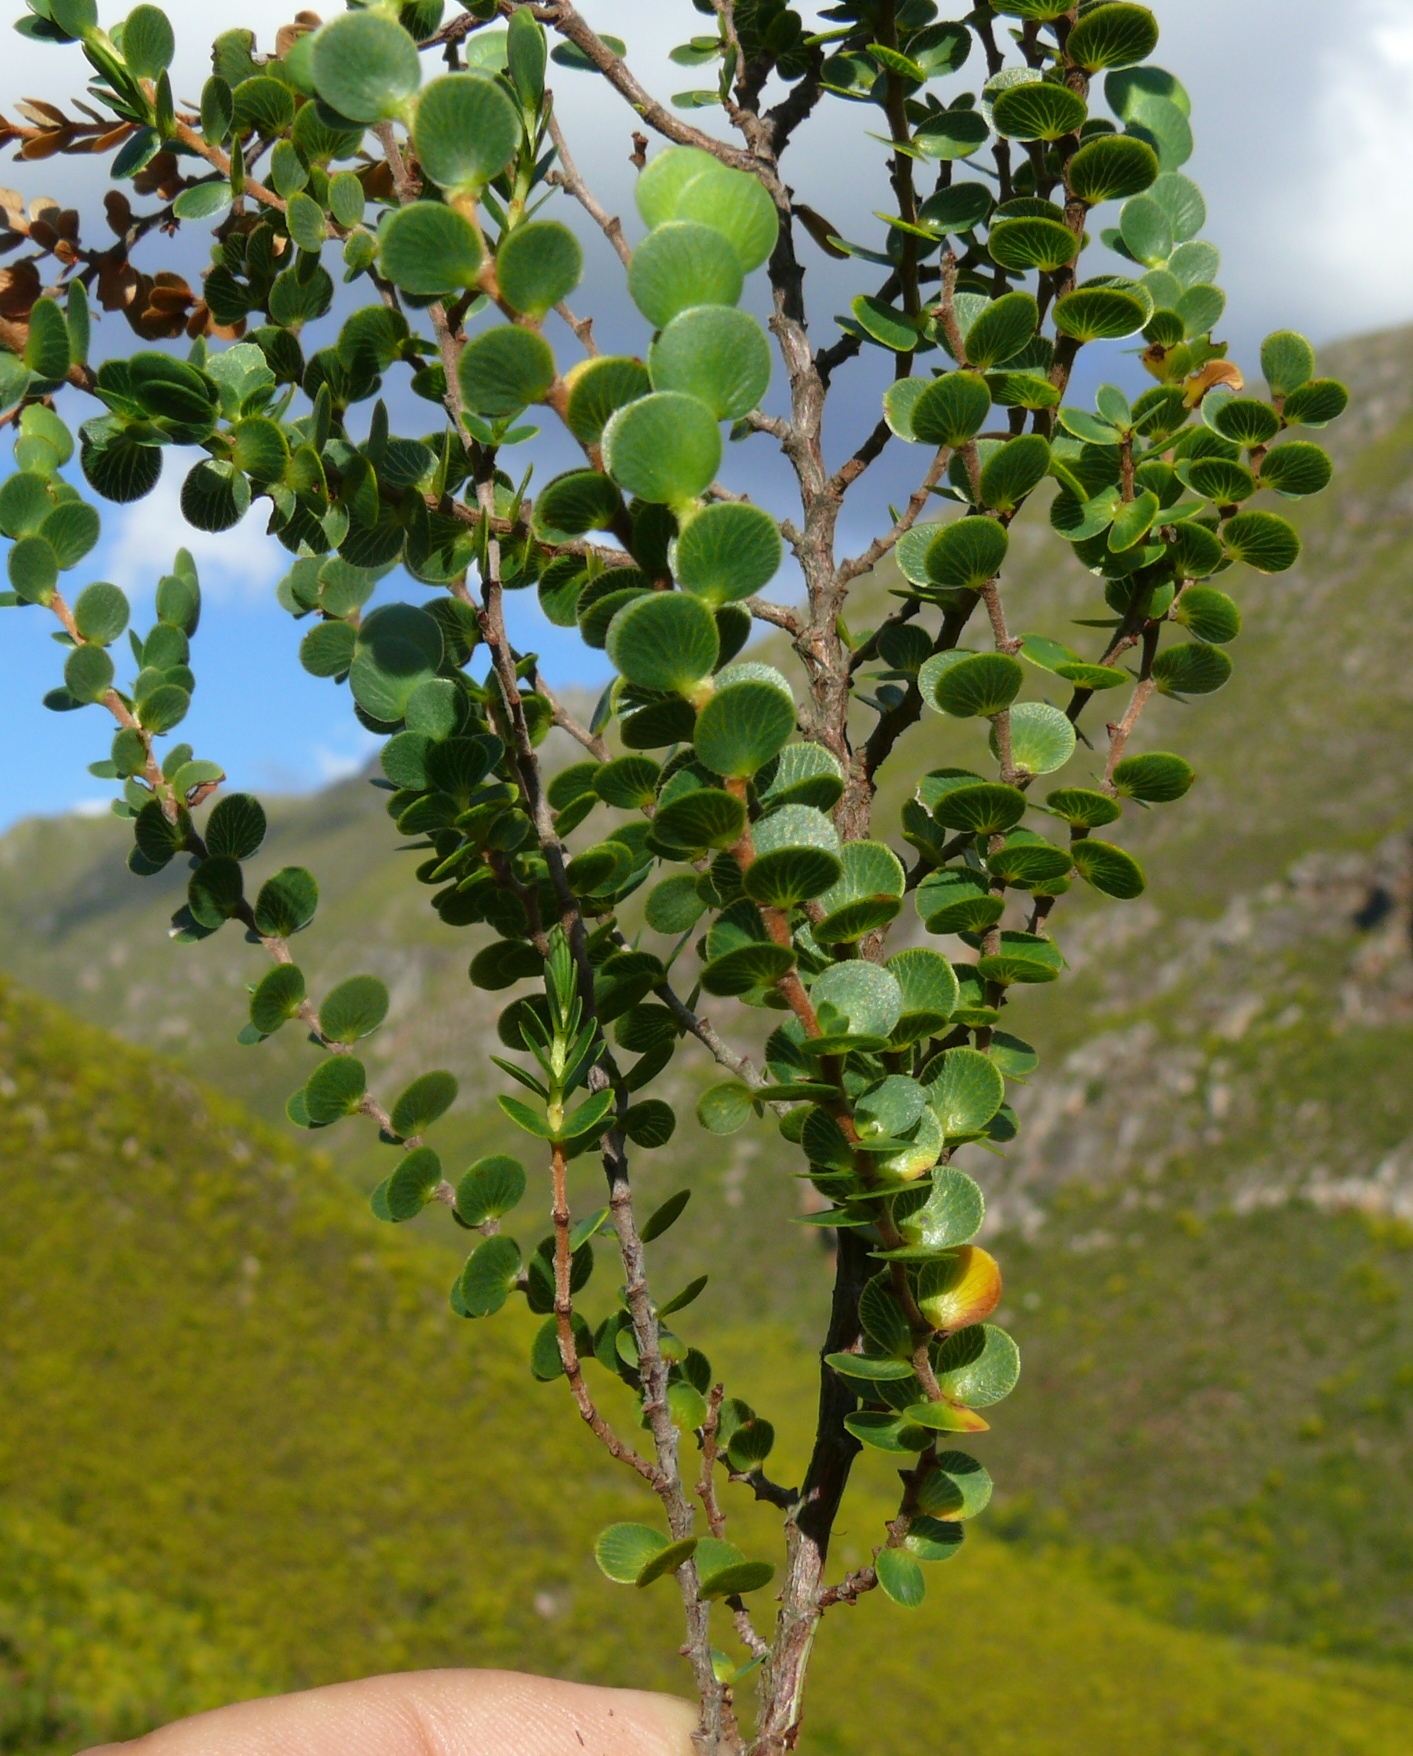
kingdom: Plantae
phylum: Tracheophyta
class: Magnoliopsida
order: Rosales
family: Rosaceae
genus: Cliffortia
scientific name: Cliffortia pulchella
